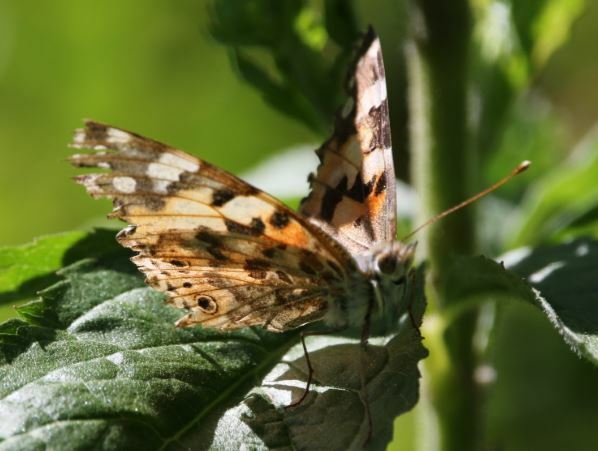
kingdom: Animalia
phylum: Arthropoda
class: Insecta
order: Lepidoptera
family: Nymphalidae
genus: Vanessa
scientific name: Vanessa cardui
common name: Painted lady
